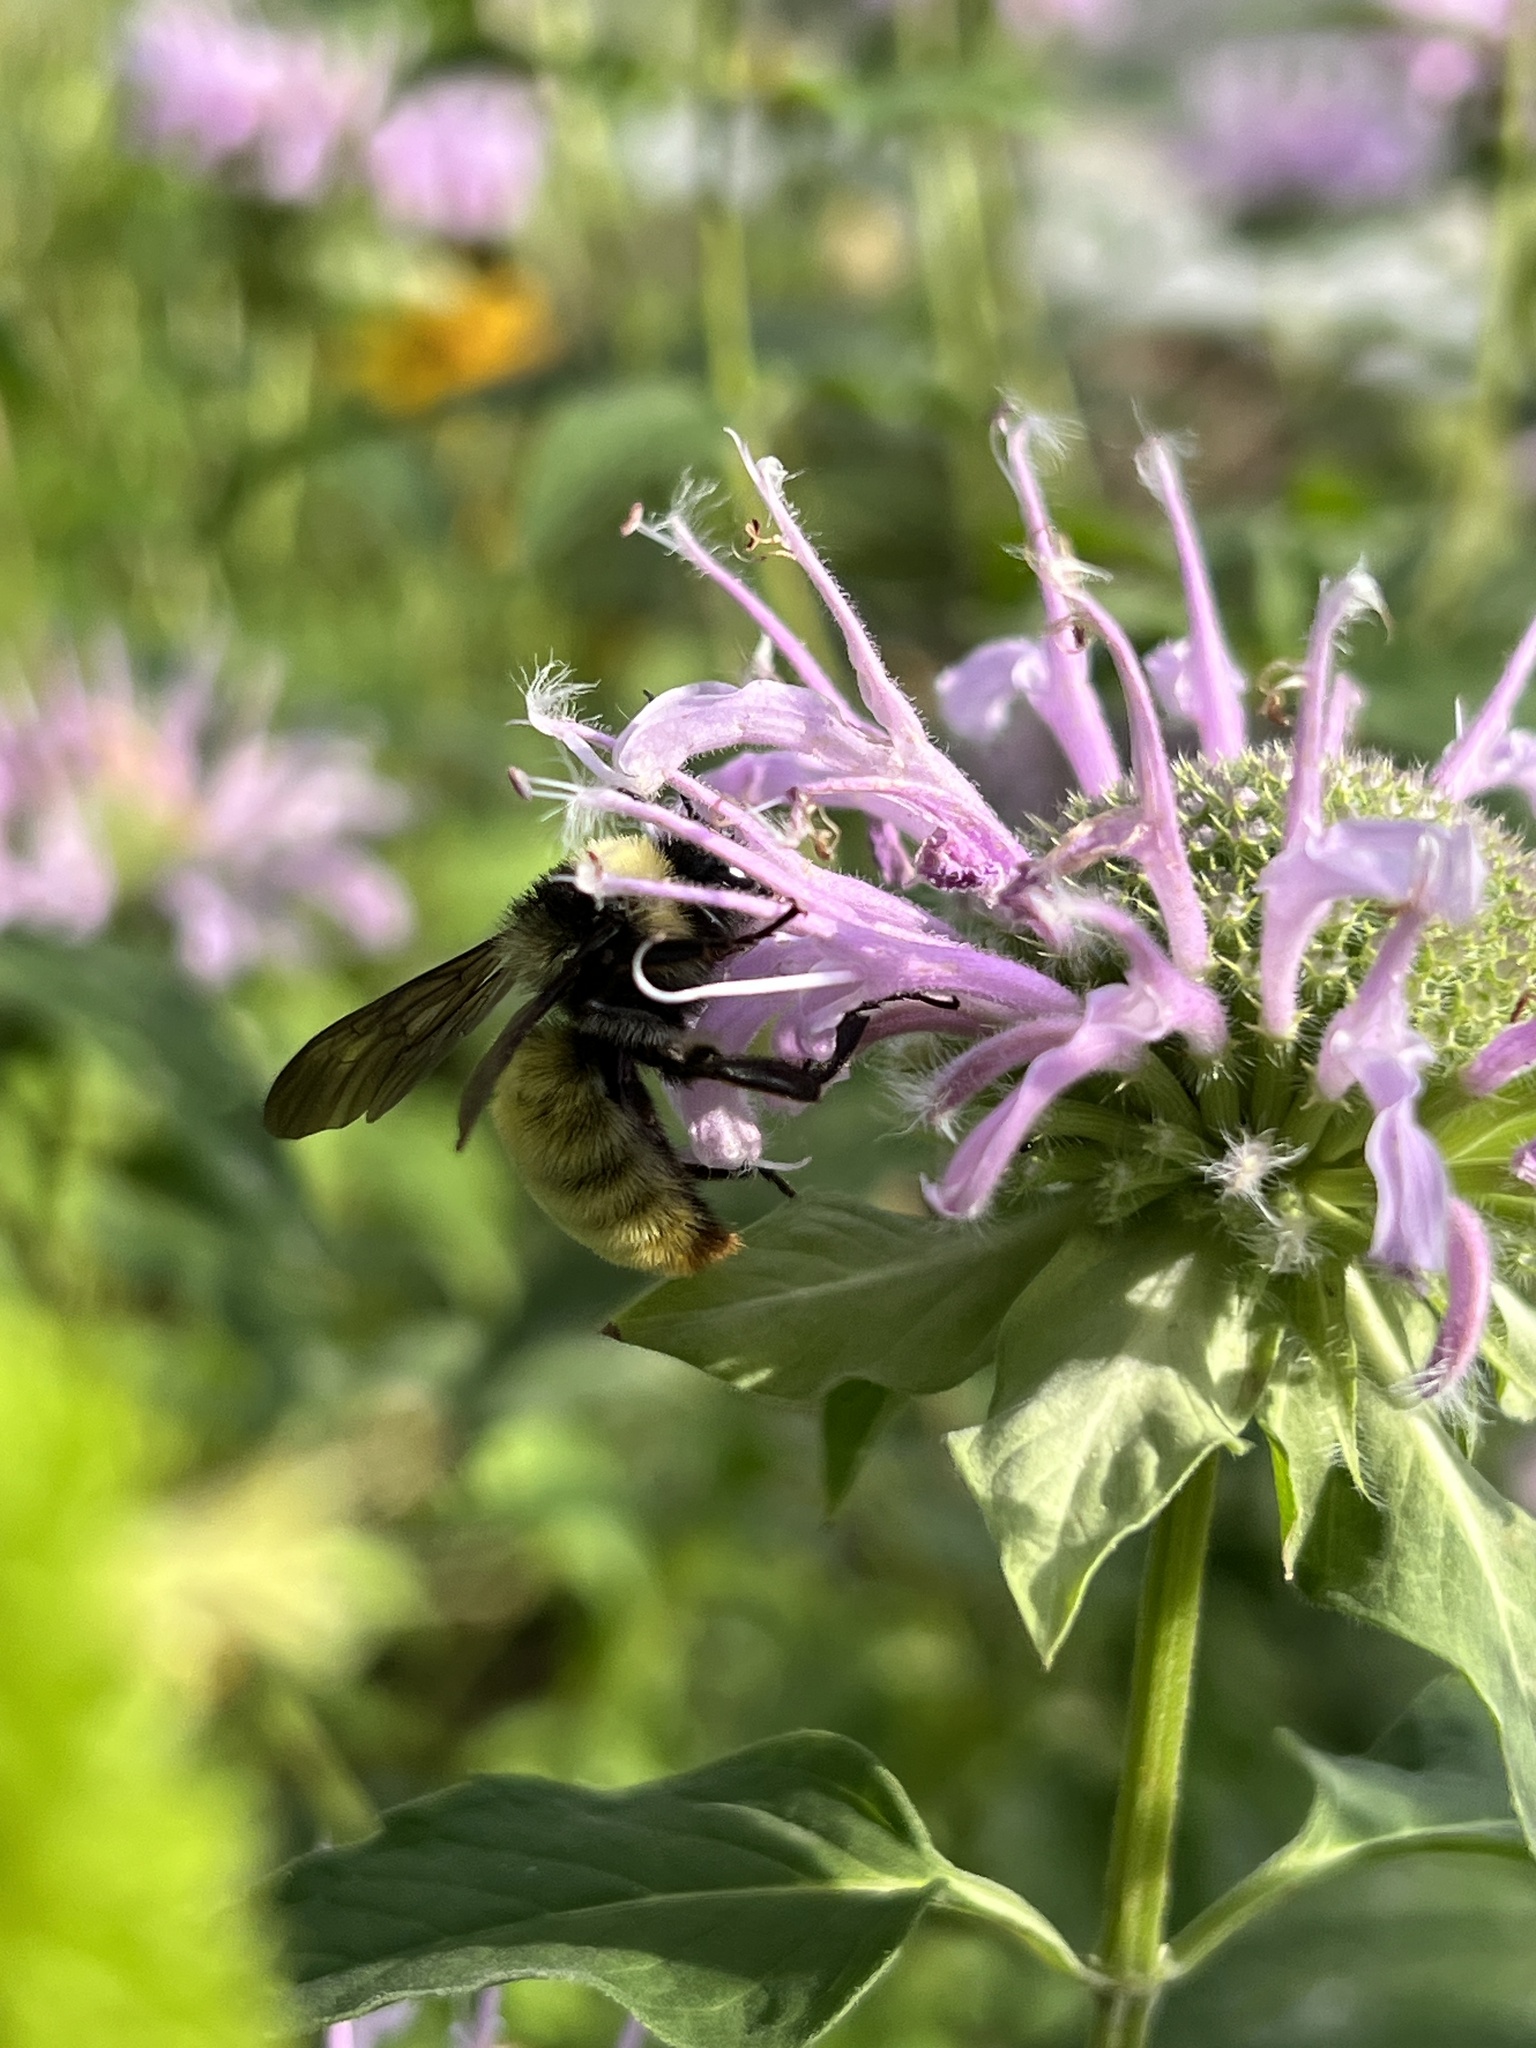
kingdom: Animalia
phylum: Arthropoda
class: Insecta
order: Hymenoptera
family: Apidae
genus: Bombus
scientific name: Bombus pensylvanicus
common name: Bumble bee
